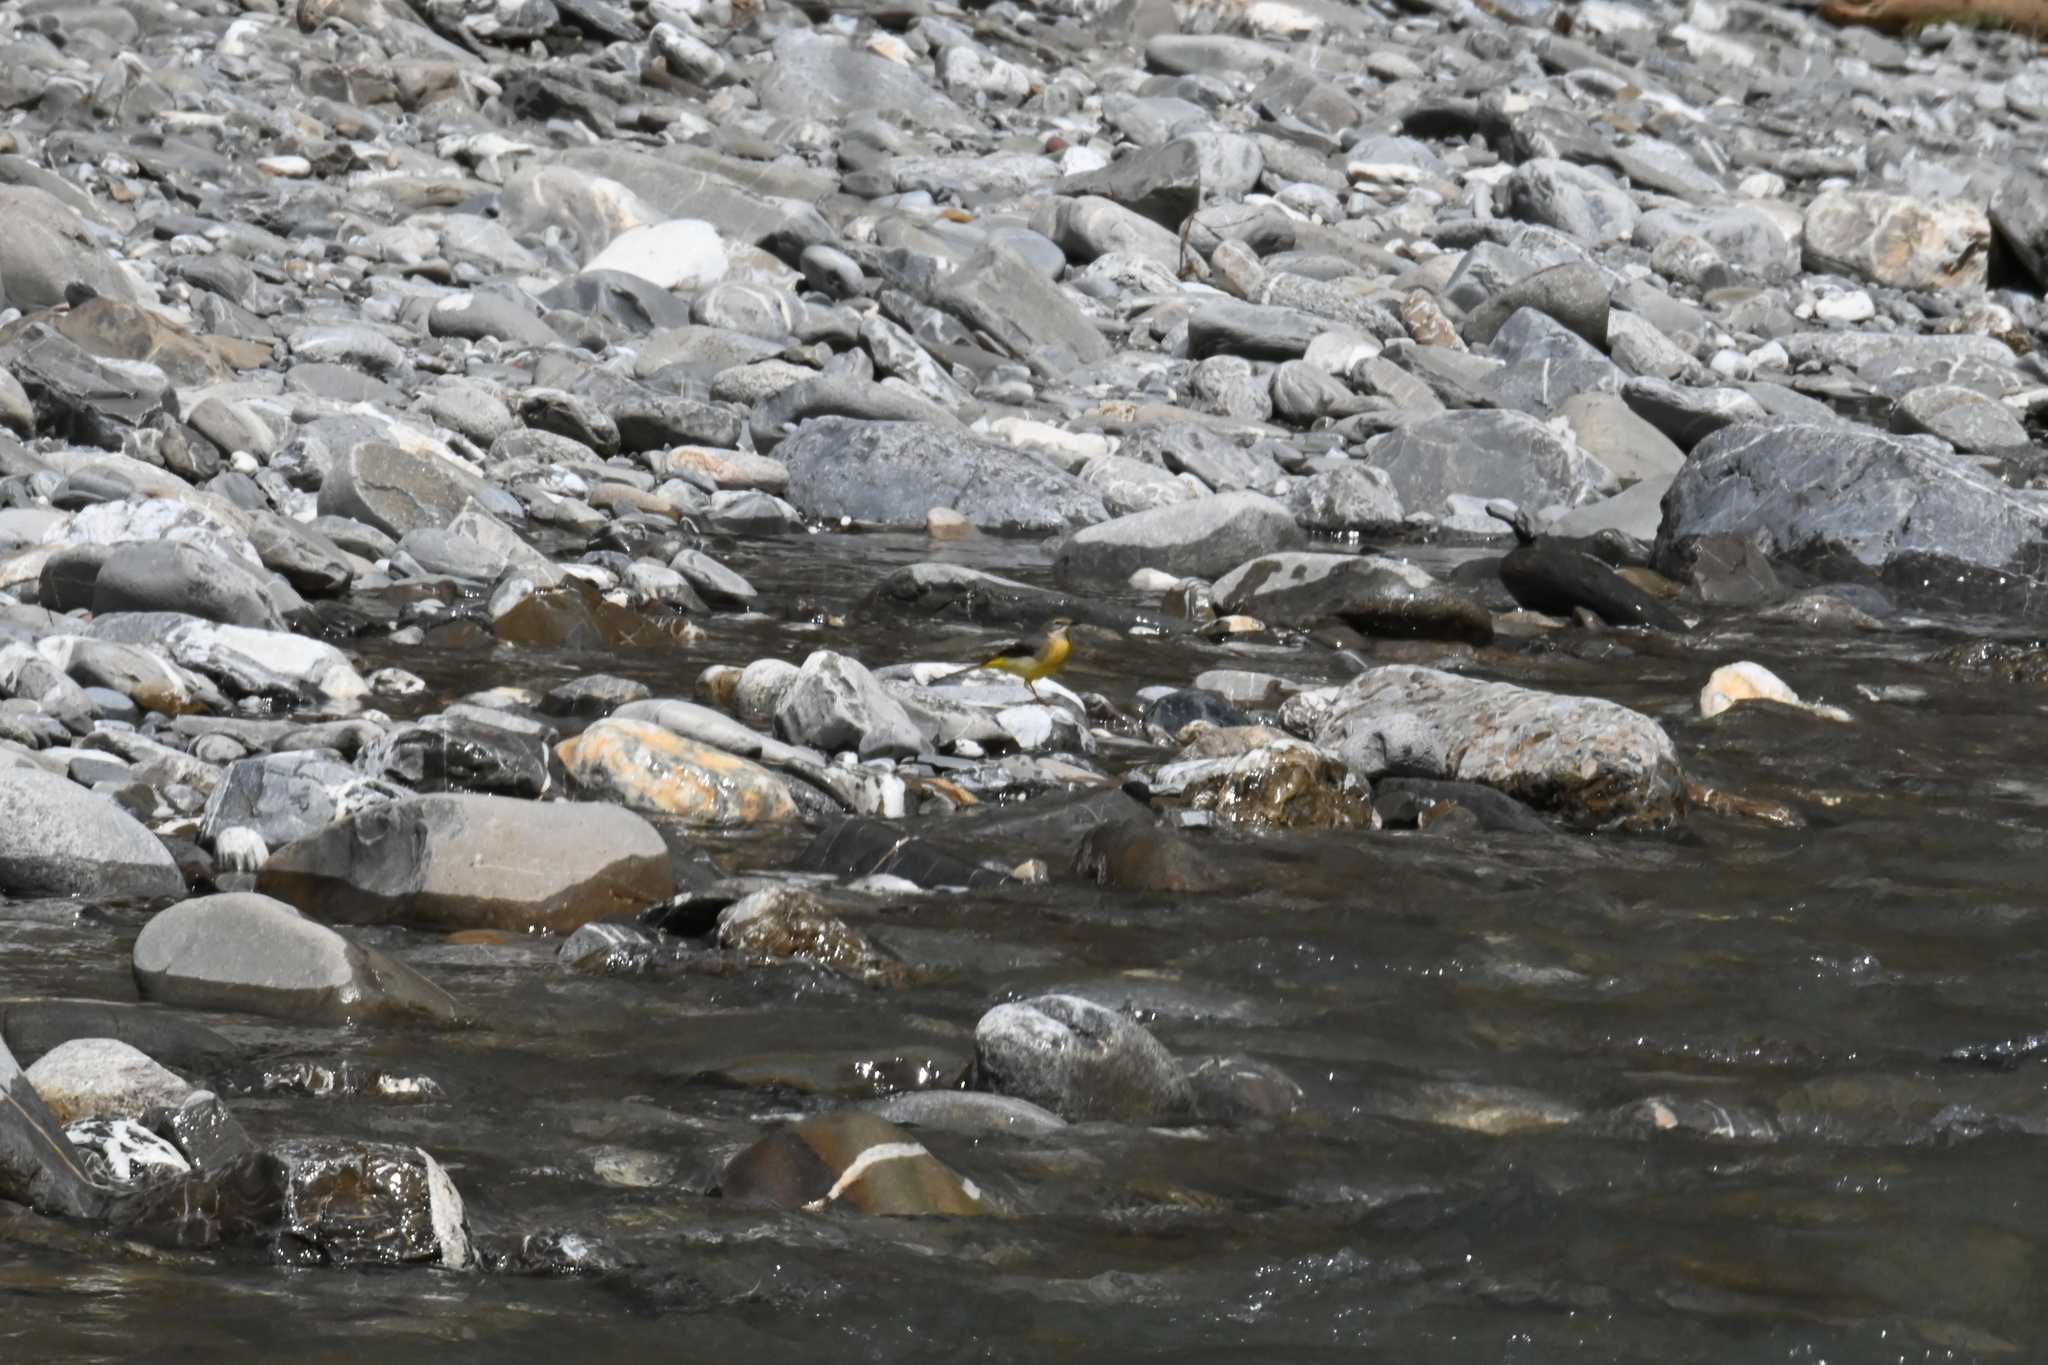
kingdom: Animalia
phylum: Chordata
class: Aves
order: Passeriformes
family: Motacillidae
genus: Motacilla
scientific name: Motacilla cinerea
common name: Grey wagtail
